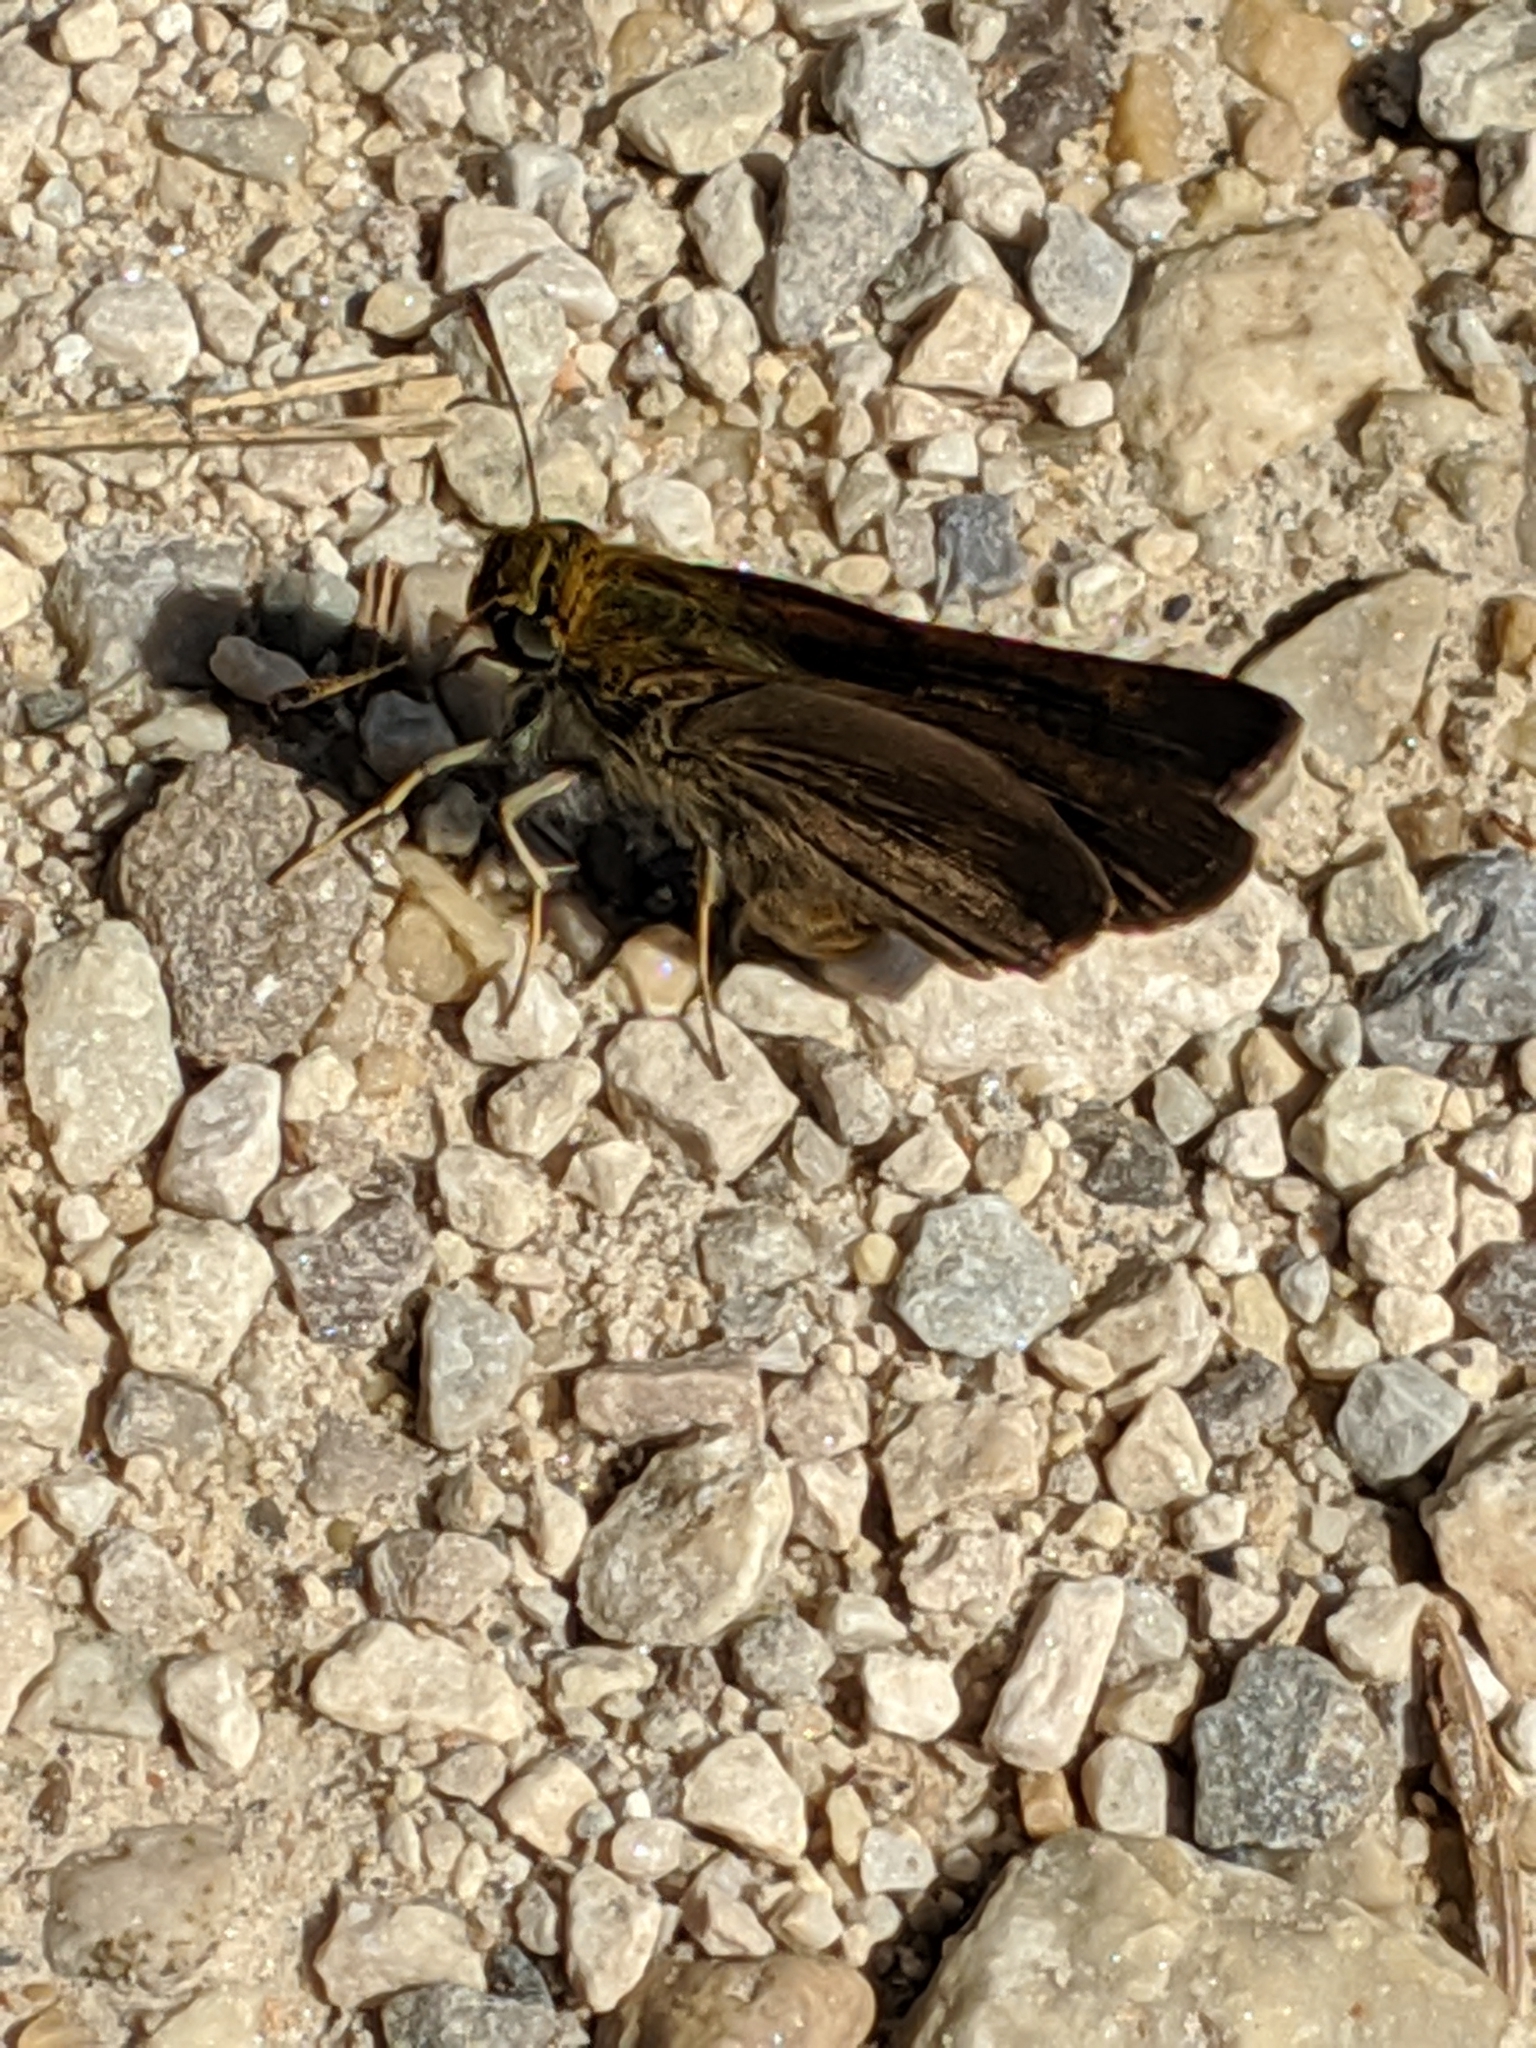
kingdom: Animalia
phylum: Arthropoda
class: Insecta
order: Lepidoptera
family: Hesperiidae
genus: Euphyes
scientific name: Euphyes vestris
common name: Dun skipper
